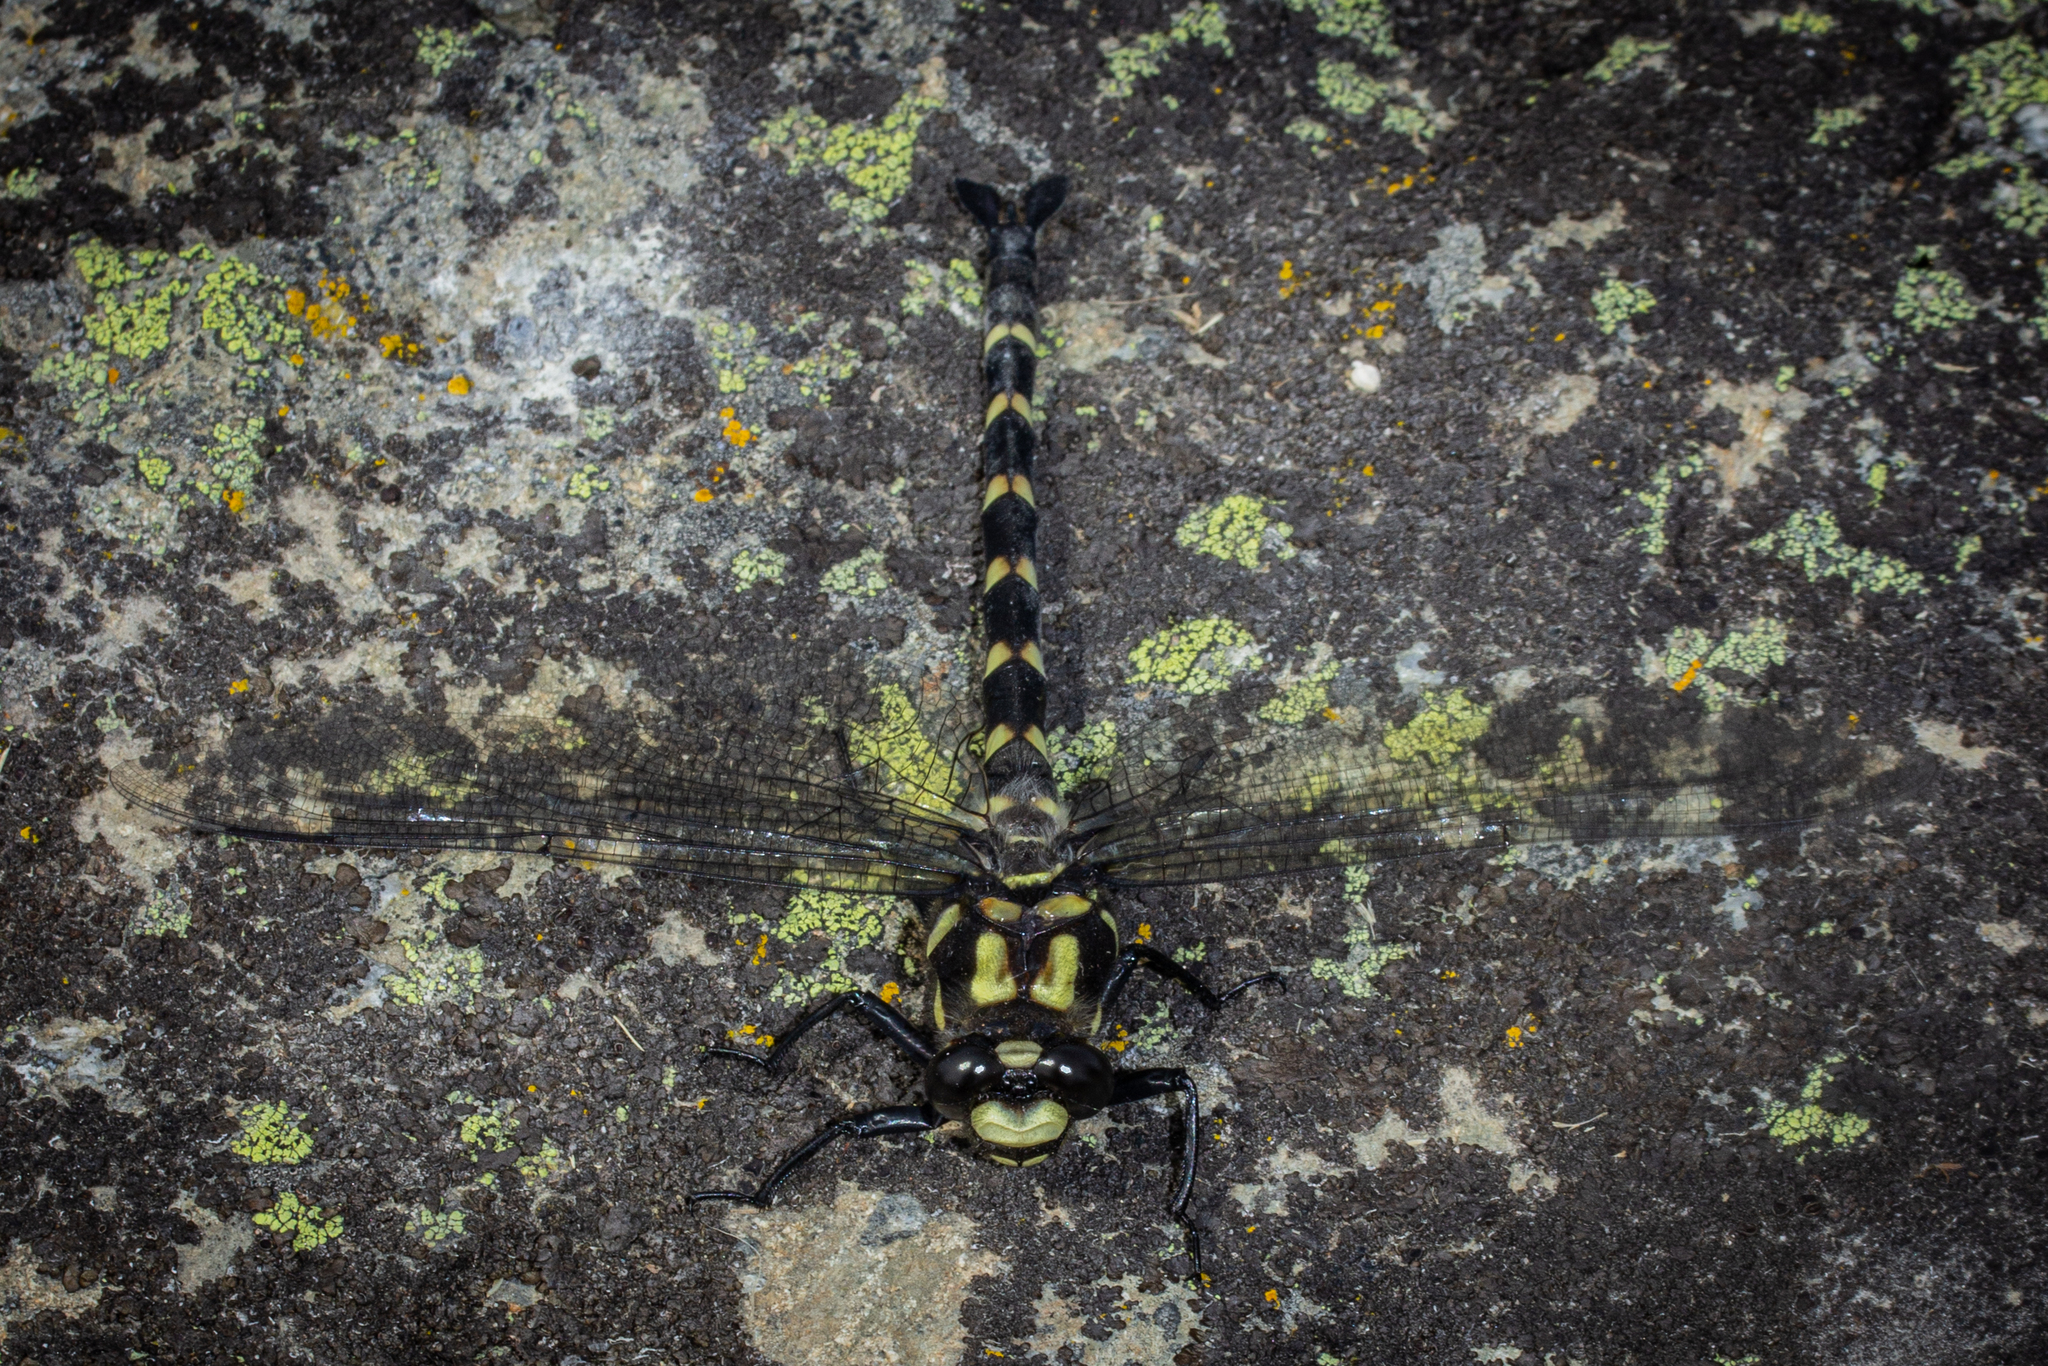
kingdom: Animalia
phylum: Arthropoda
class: Insecta
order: Odonata
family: Petaluridae
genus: Uropetala
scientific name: Uropetala chiltoni
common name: Mountain giant dragonfly
